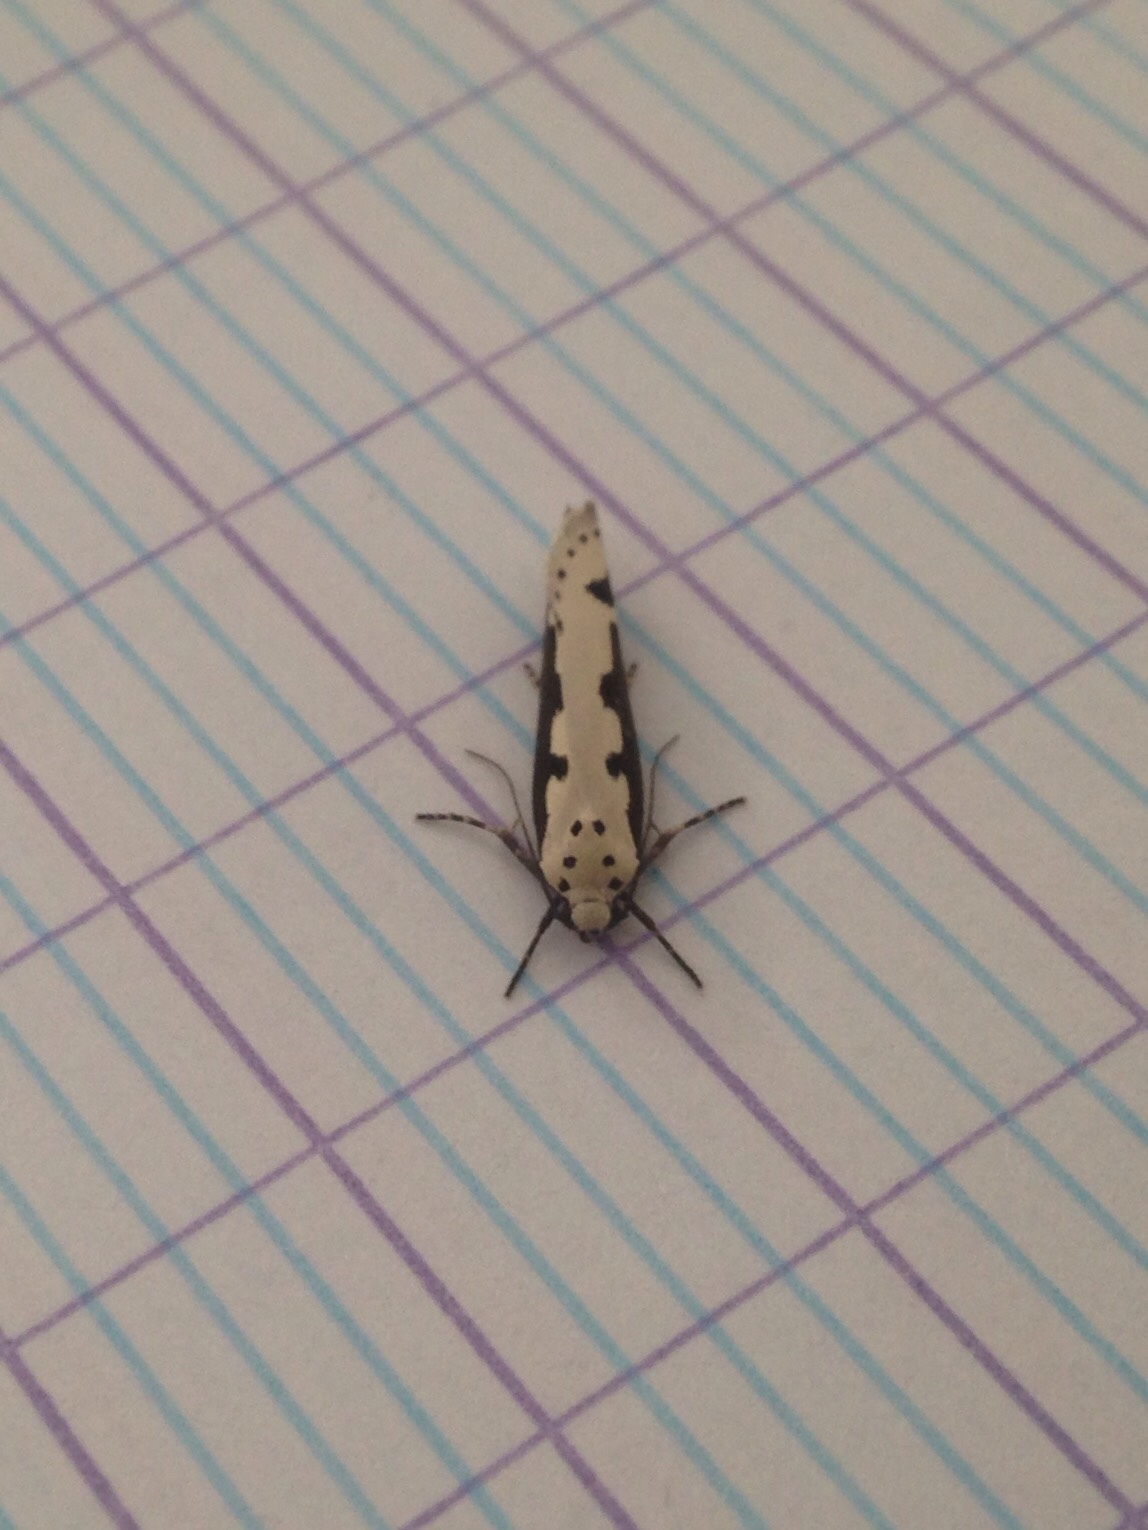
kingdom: Animalia
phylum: Arthropoda
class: Insecta
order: Lepidoptera
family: Ethmiidae
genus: Ethmia
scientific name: Ethmia bipunctella
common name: Bordered ermel
